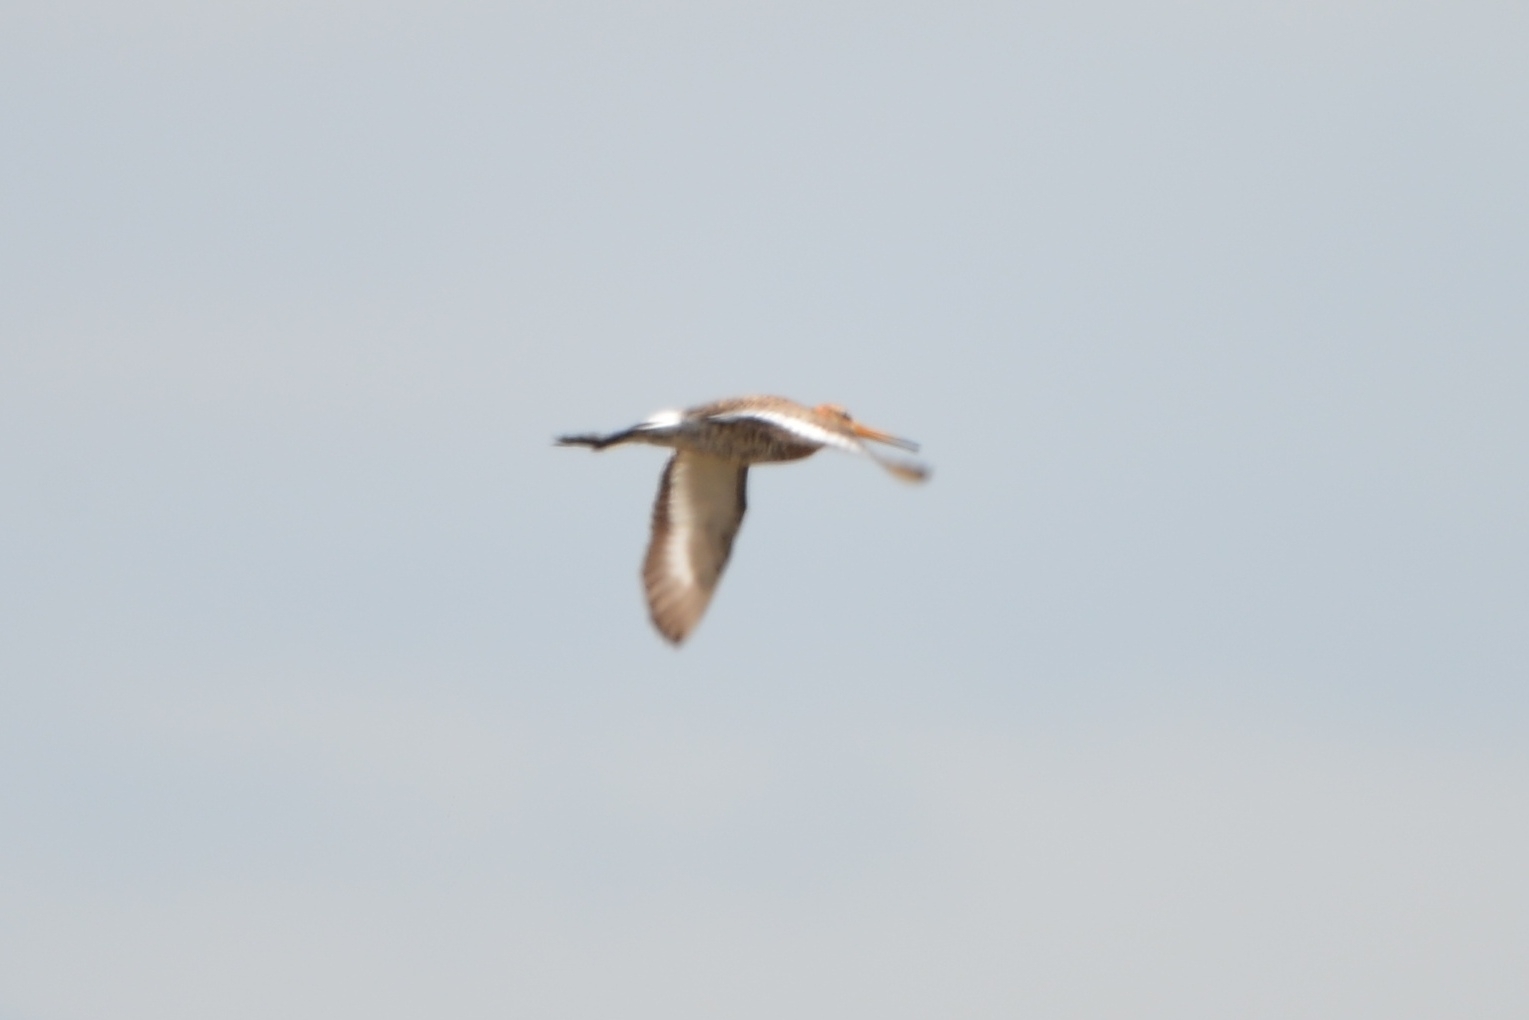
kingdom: Animalia
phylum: Chordata
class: Aves
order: Charadriiformes
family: Scolopacidae
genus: Limosa
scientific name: Limosa limosa
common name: Black-tailed godwit
